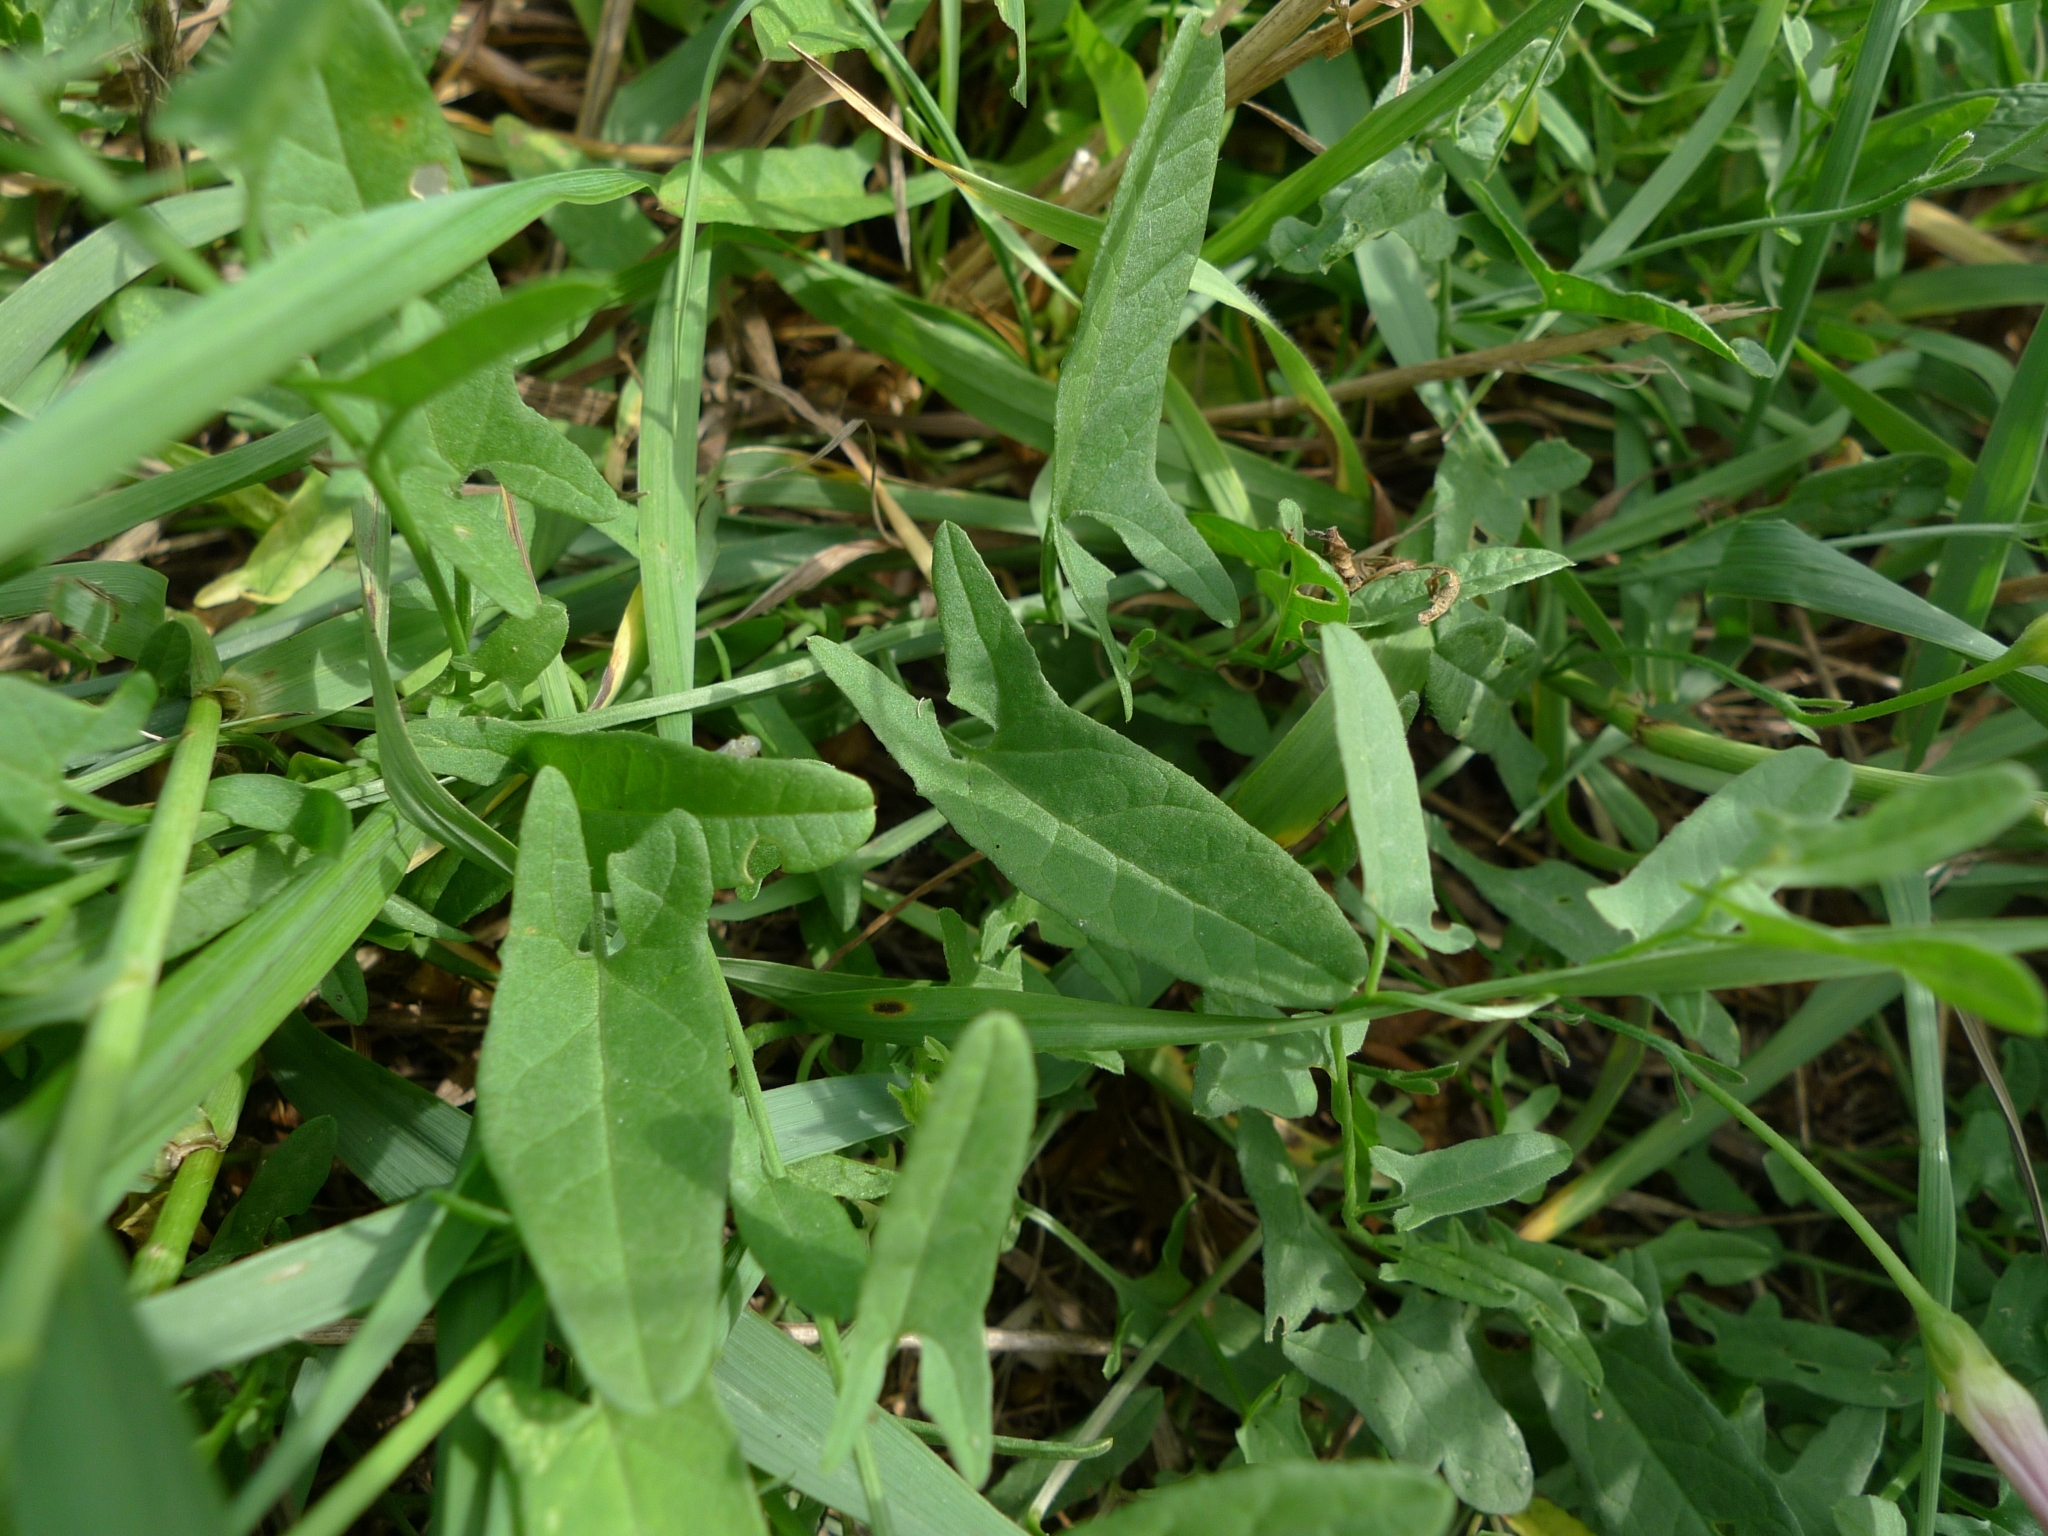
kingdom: Plantae
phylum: Tracheophyta
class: Magnoliopsida
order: Solanales
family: Convolvulaceae
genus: Convolvulus
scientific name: Convolvulus arvensis
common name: Field bindweed
